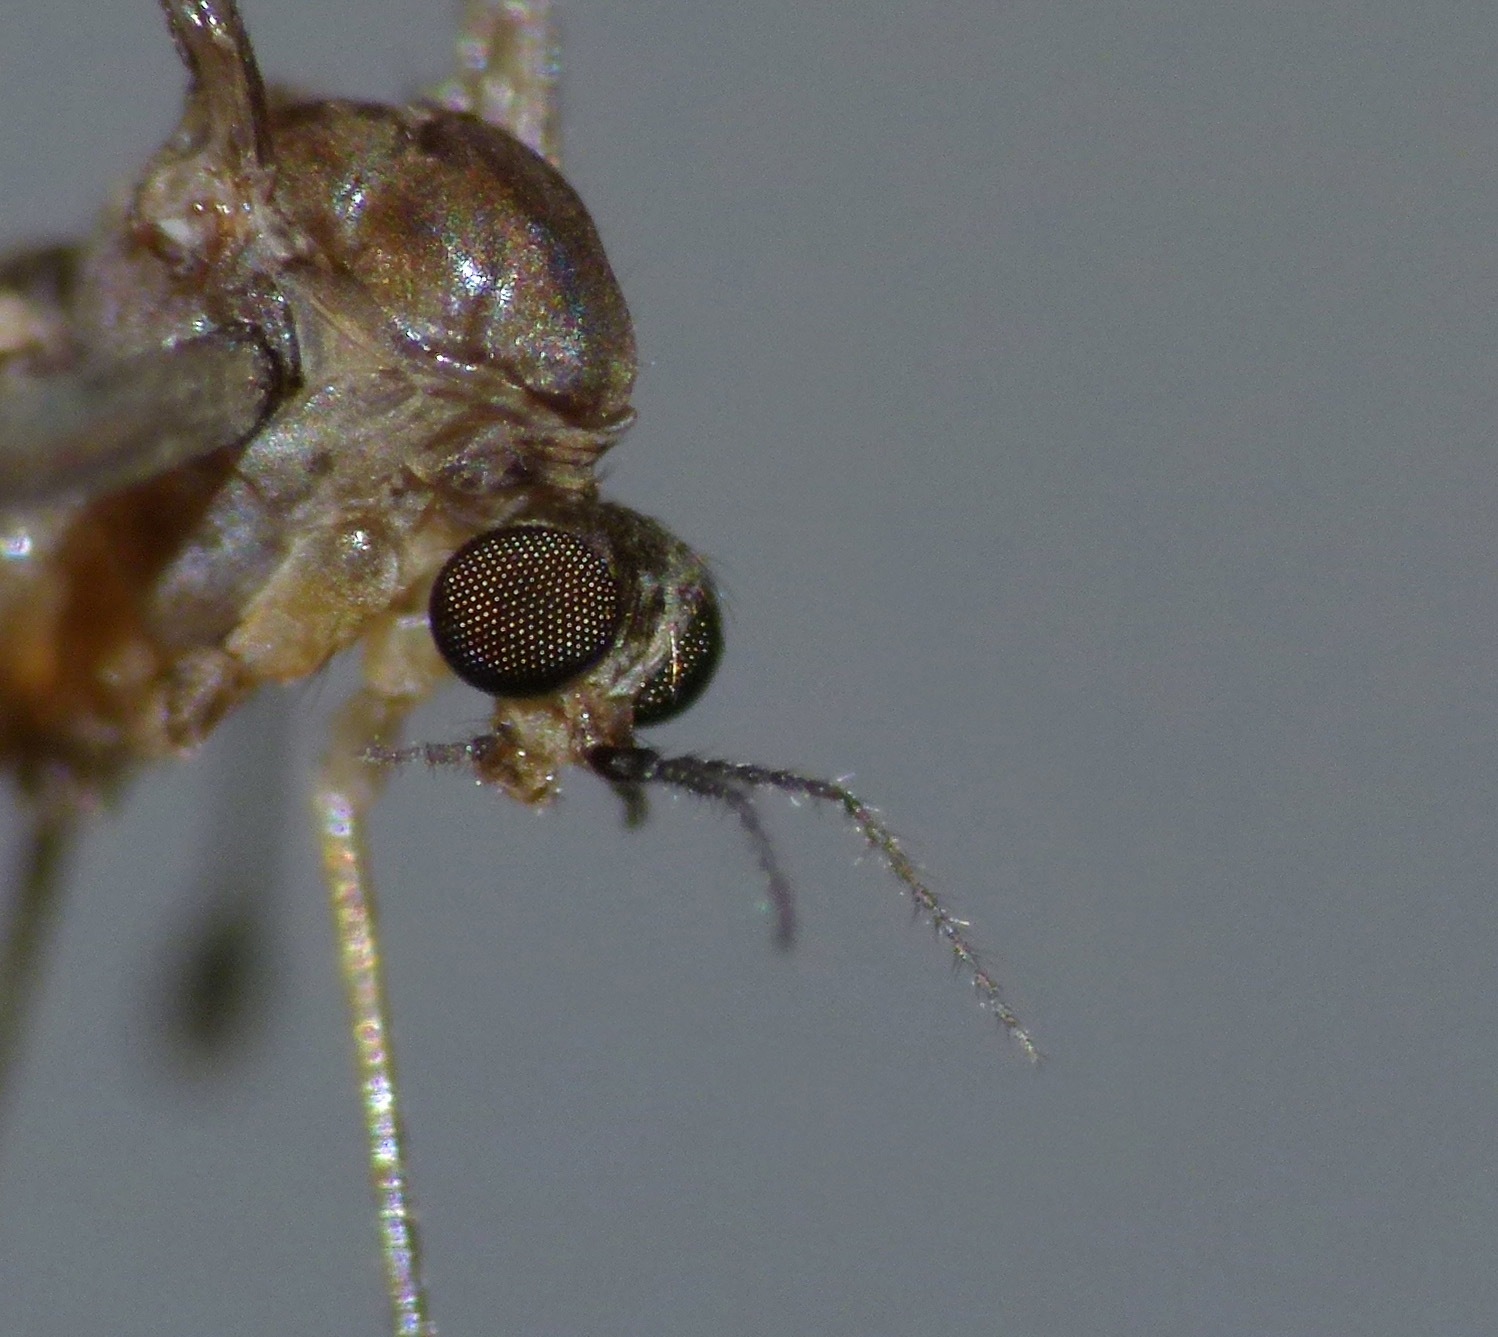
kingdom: Animalia
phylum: Arthropoda
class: Insecta
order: Diptera
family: Limoniidae
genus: Nothophila
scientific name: Nothophila fuscana
